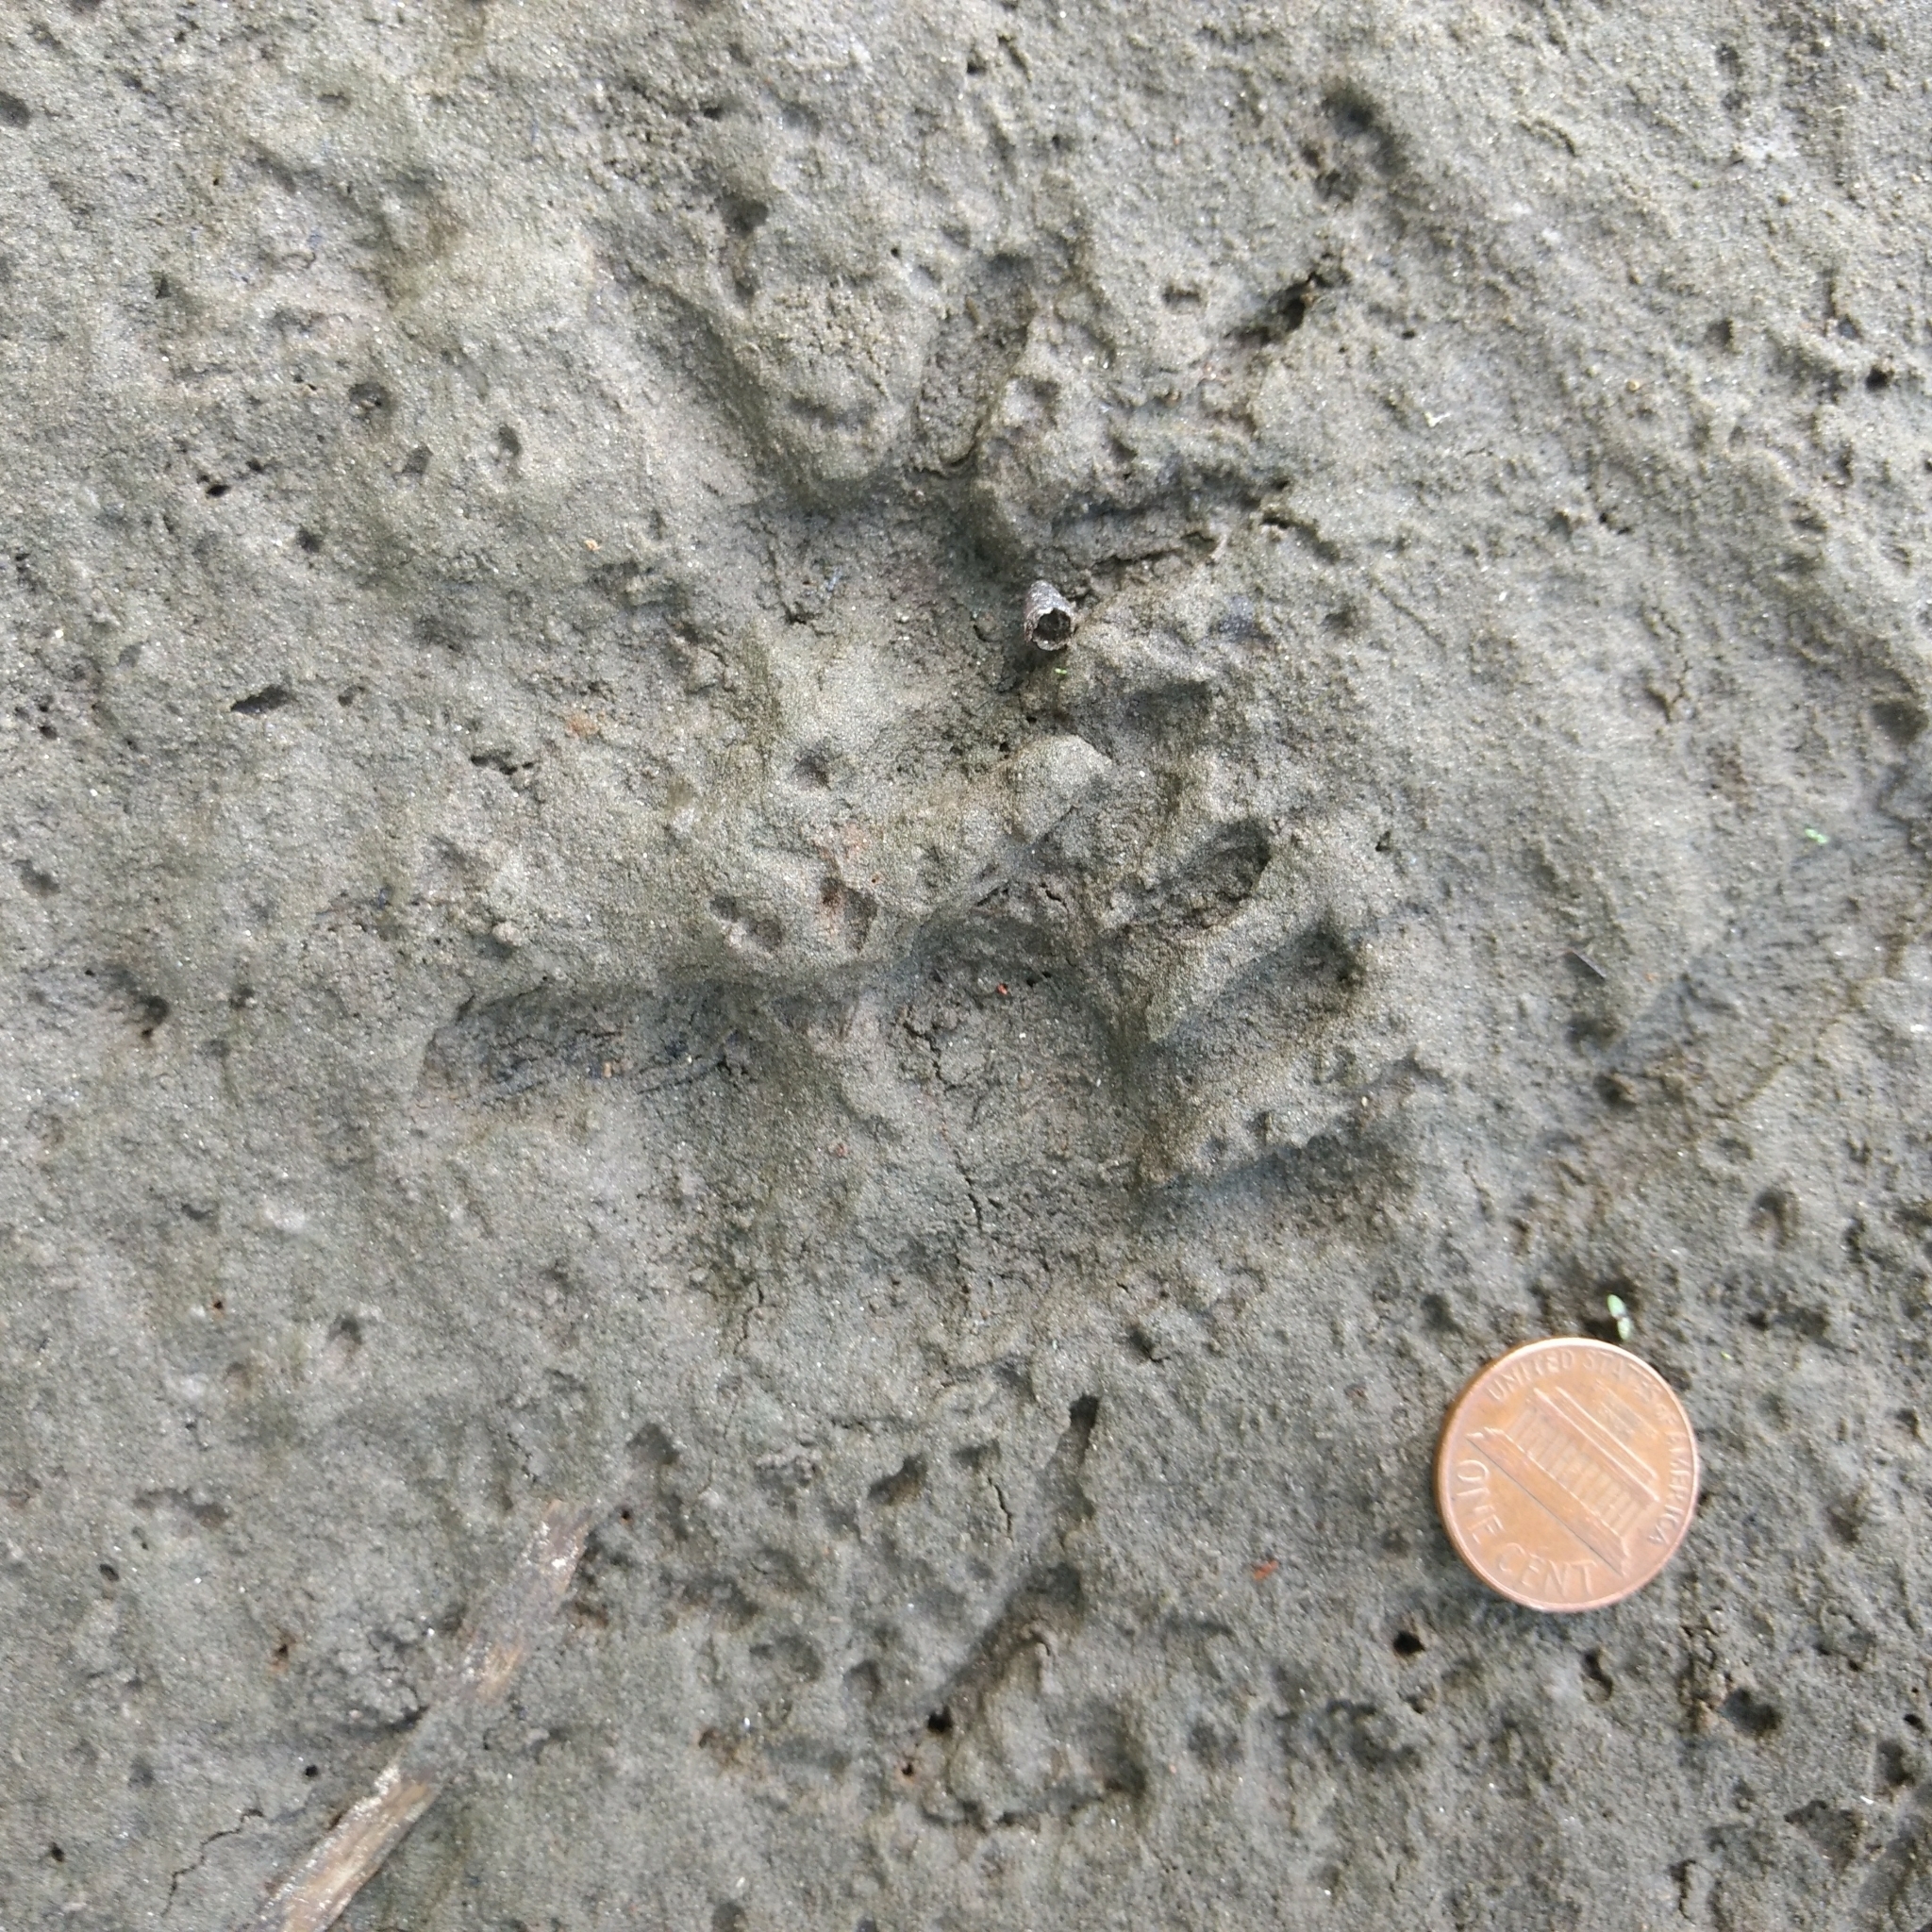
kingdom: Animalia
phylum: Chordata
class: Mammalia
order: Didelphimorphia
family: Didelphidae
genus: Didelphis
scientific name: Didelphis virginiana
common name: Virginia opossum
